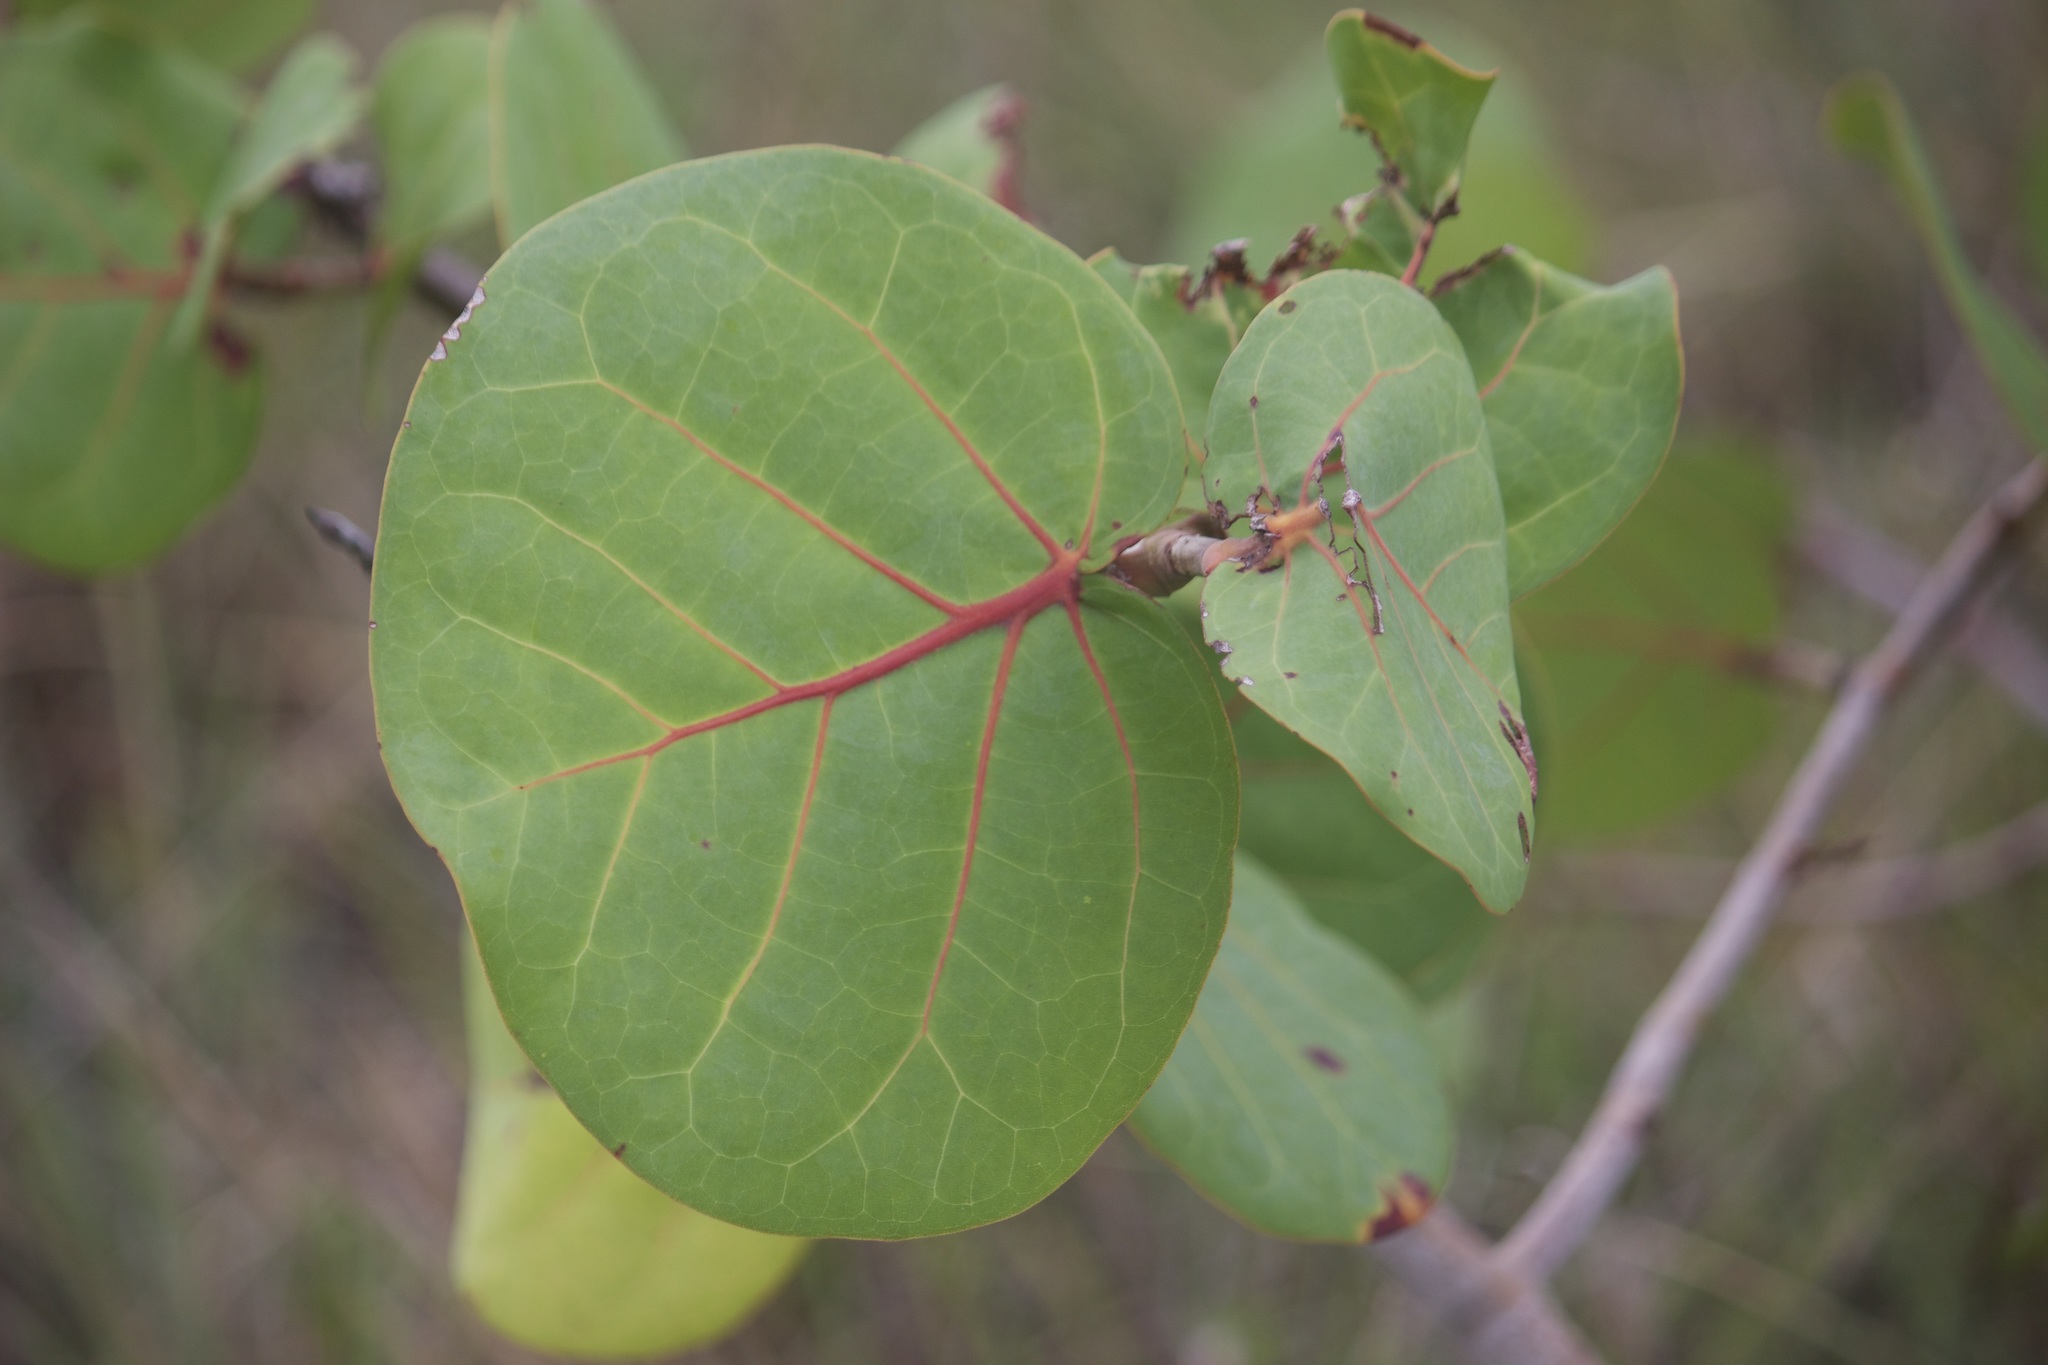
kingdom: Plantae
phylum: Tracheophyta
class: Magnoliopsida
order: Caryophyllales
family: Polygonaceae
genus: Coccoloba
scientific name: Coccoloba uvifera
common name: Seagrape
